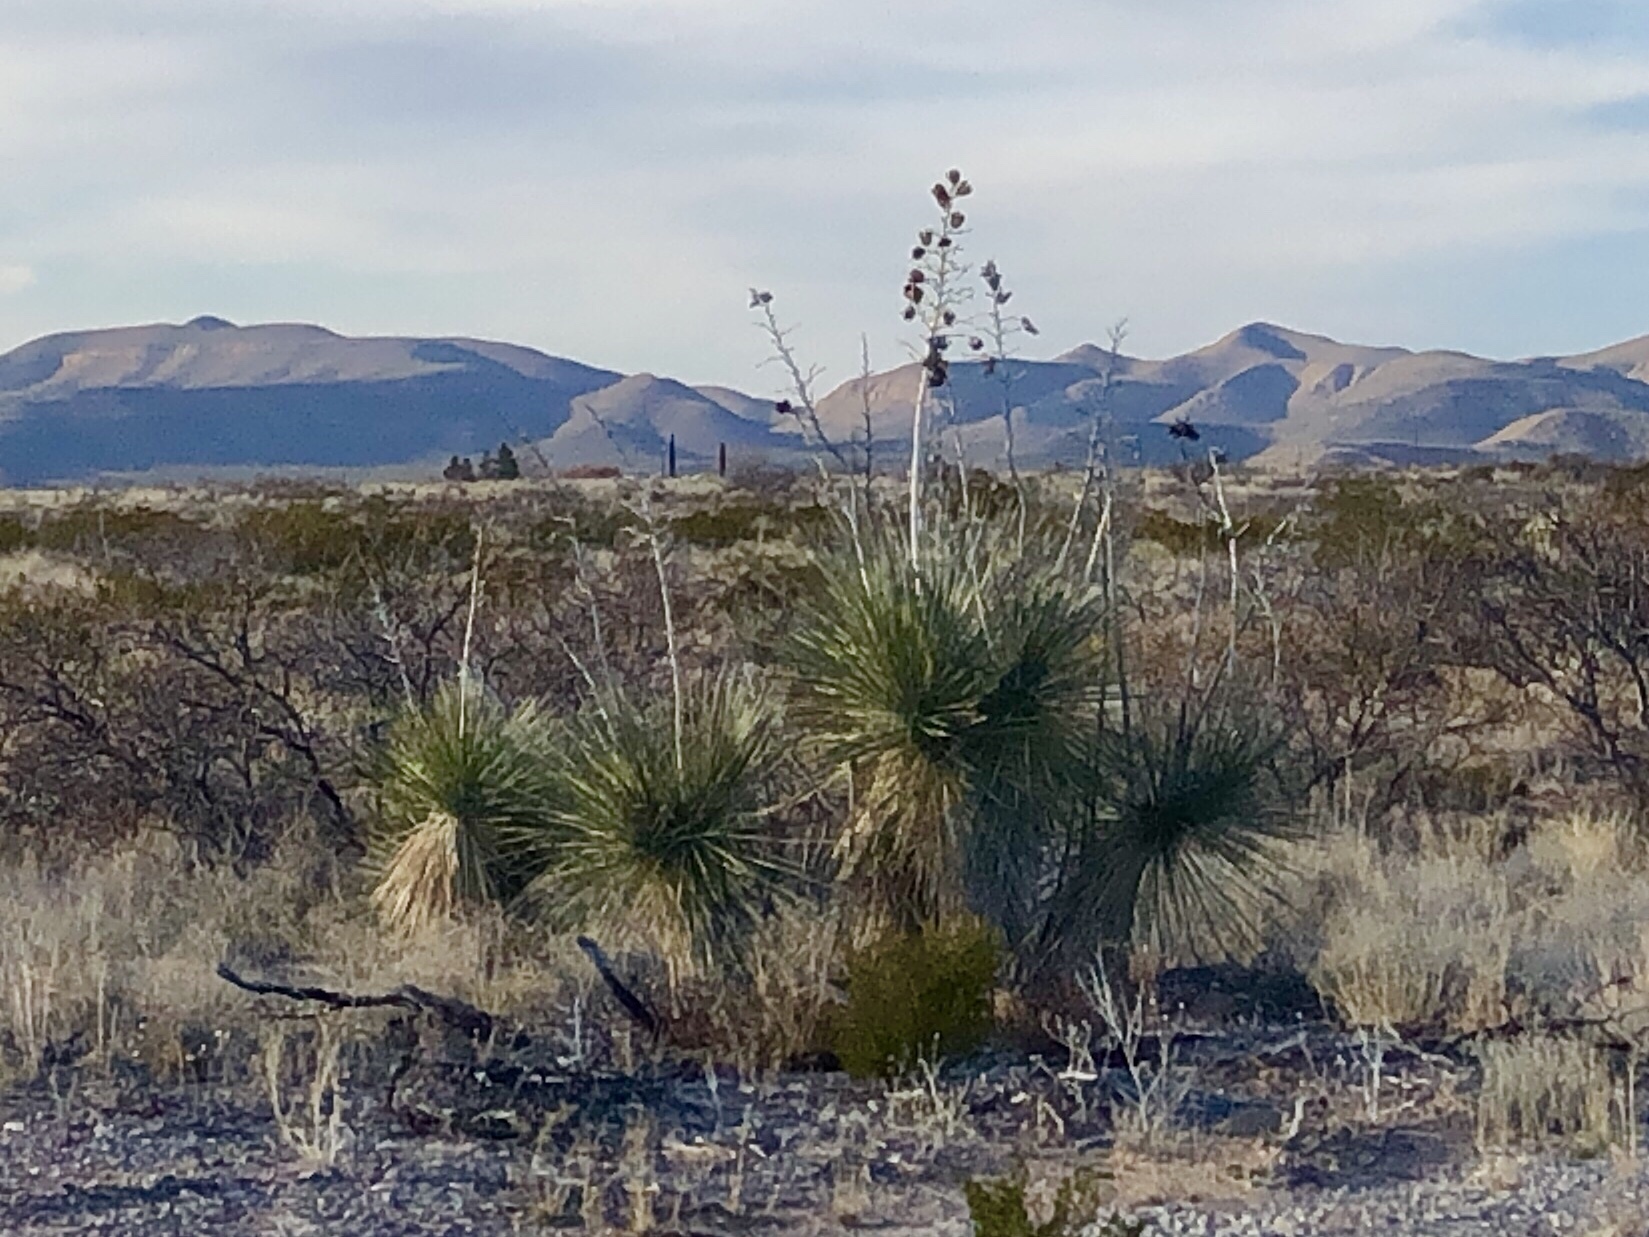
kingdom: Plantae
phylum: Tracheophyta
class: Liliopsida
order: Asparagales
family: Asparagaceae
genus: Yucca
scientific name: Yucca elata
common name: Palmella
